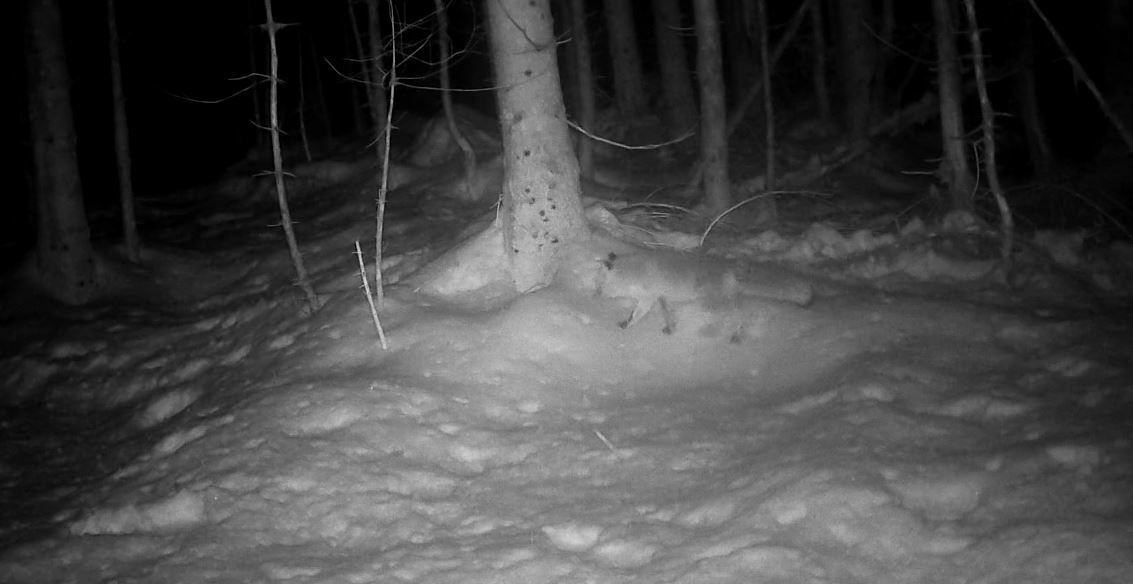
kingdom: Animalia
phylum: Chordata
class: Mammalia
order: Carnivora
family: Canidae
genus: Vulpes
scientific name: Vulpes vulpes
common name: Red fox
